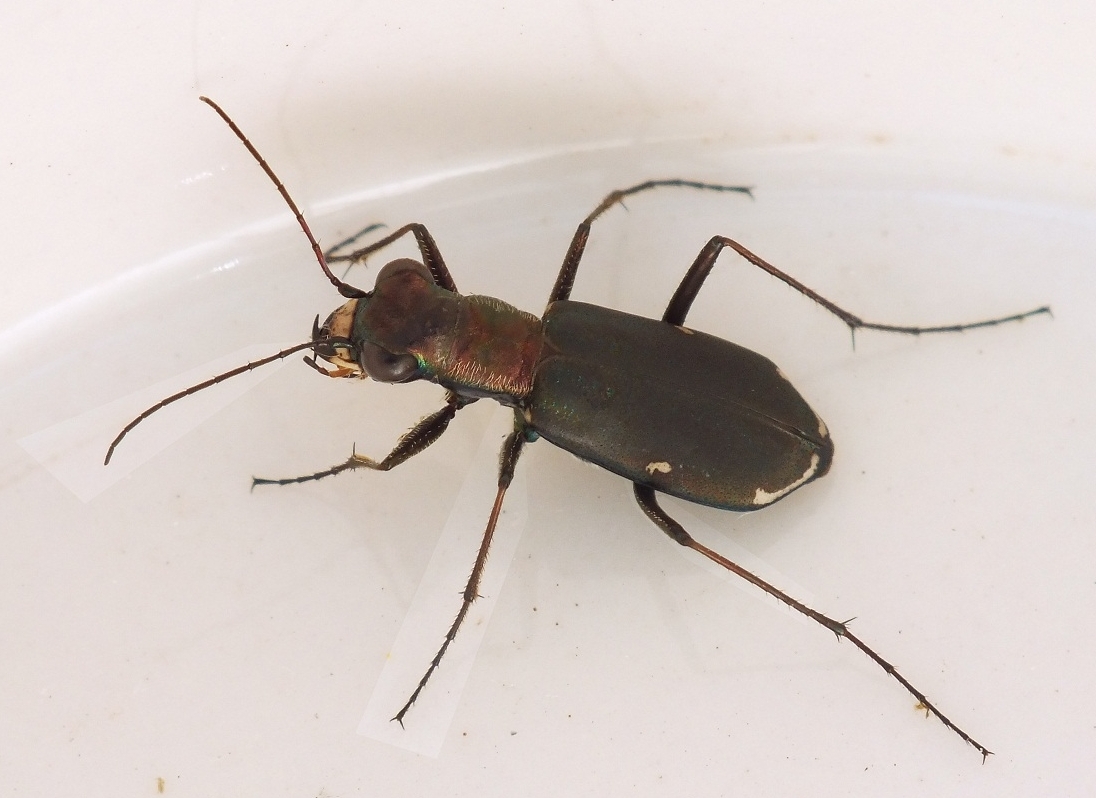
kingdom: Animalia
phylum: Arthropoda
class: Insecta
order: Coleoptera
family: Carabidae
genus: Cylindera
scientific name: Cylindera germanica
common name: Cliff tiger beetle
